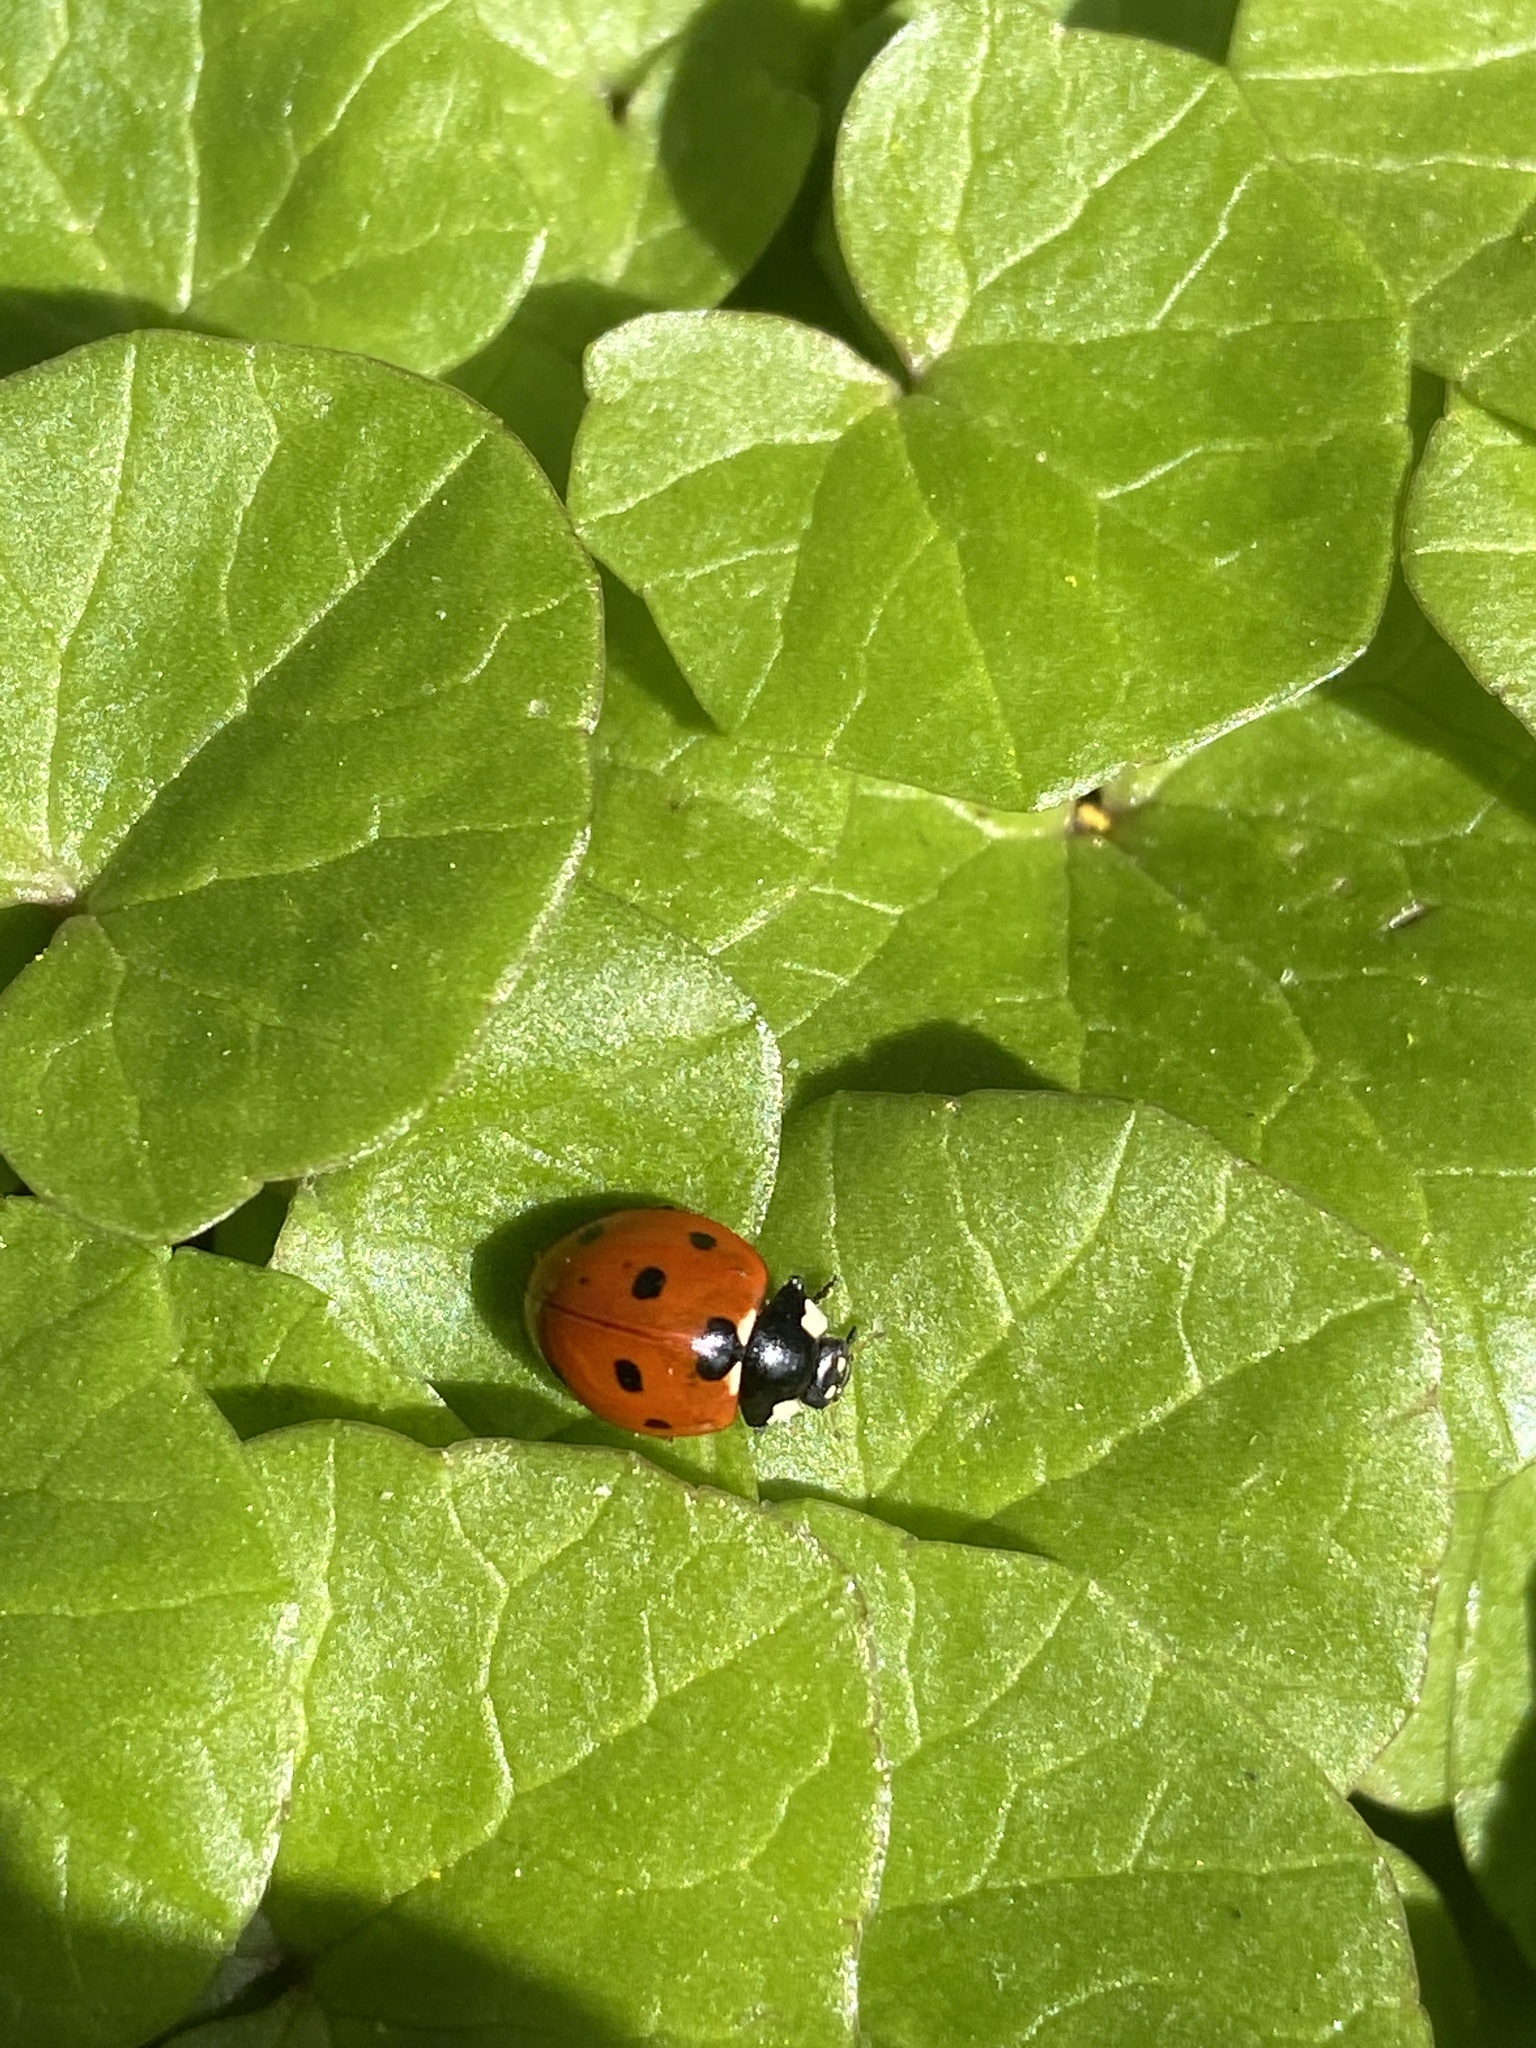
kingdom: Animalia
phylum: Arthropoda
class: Insecta
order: Coleoptera
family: Coccinellidae
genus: Coccinella
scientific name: Coccinella septempunctata
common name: Sevenspotted lady beetle
